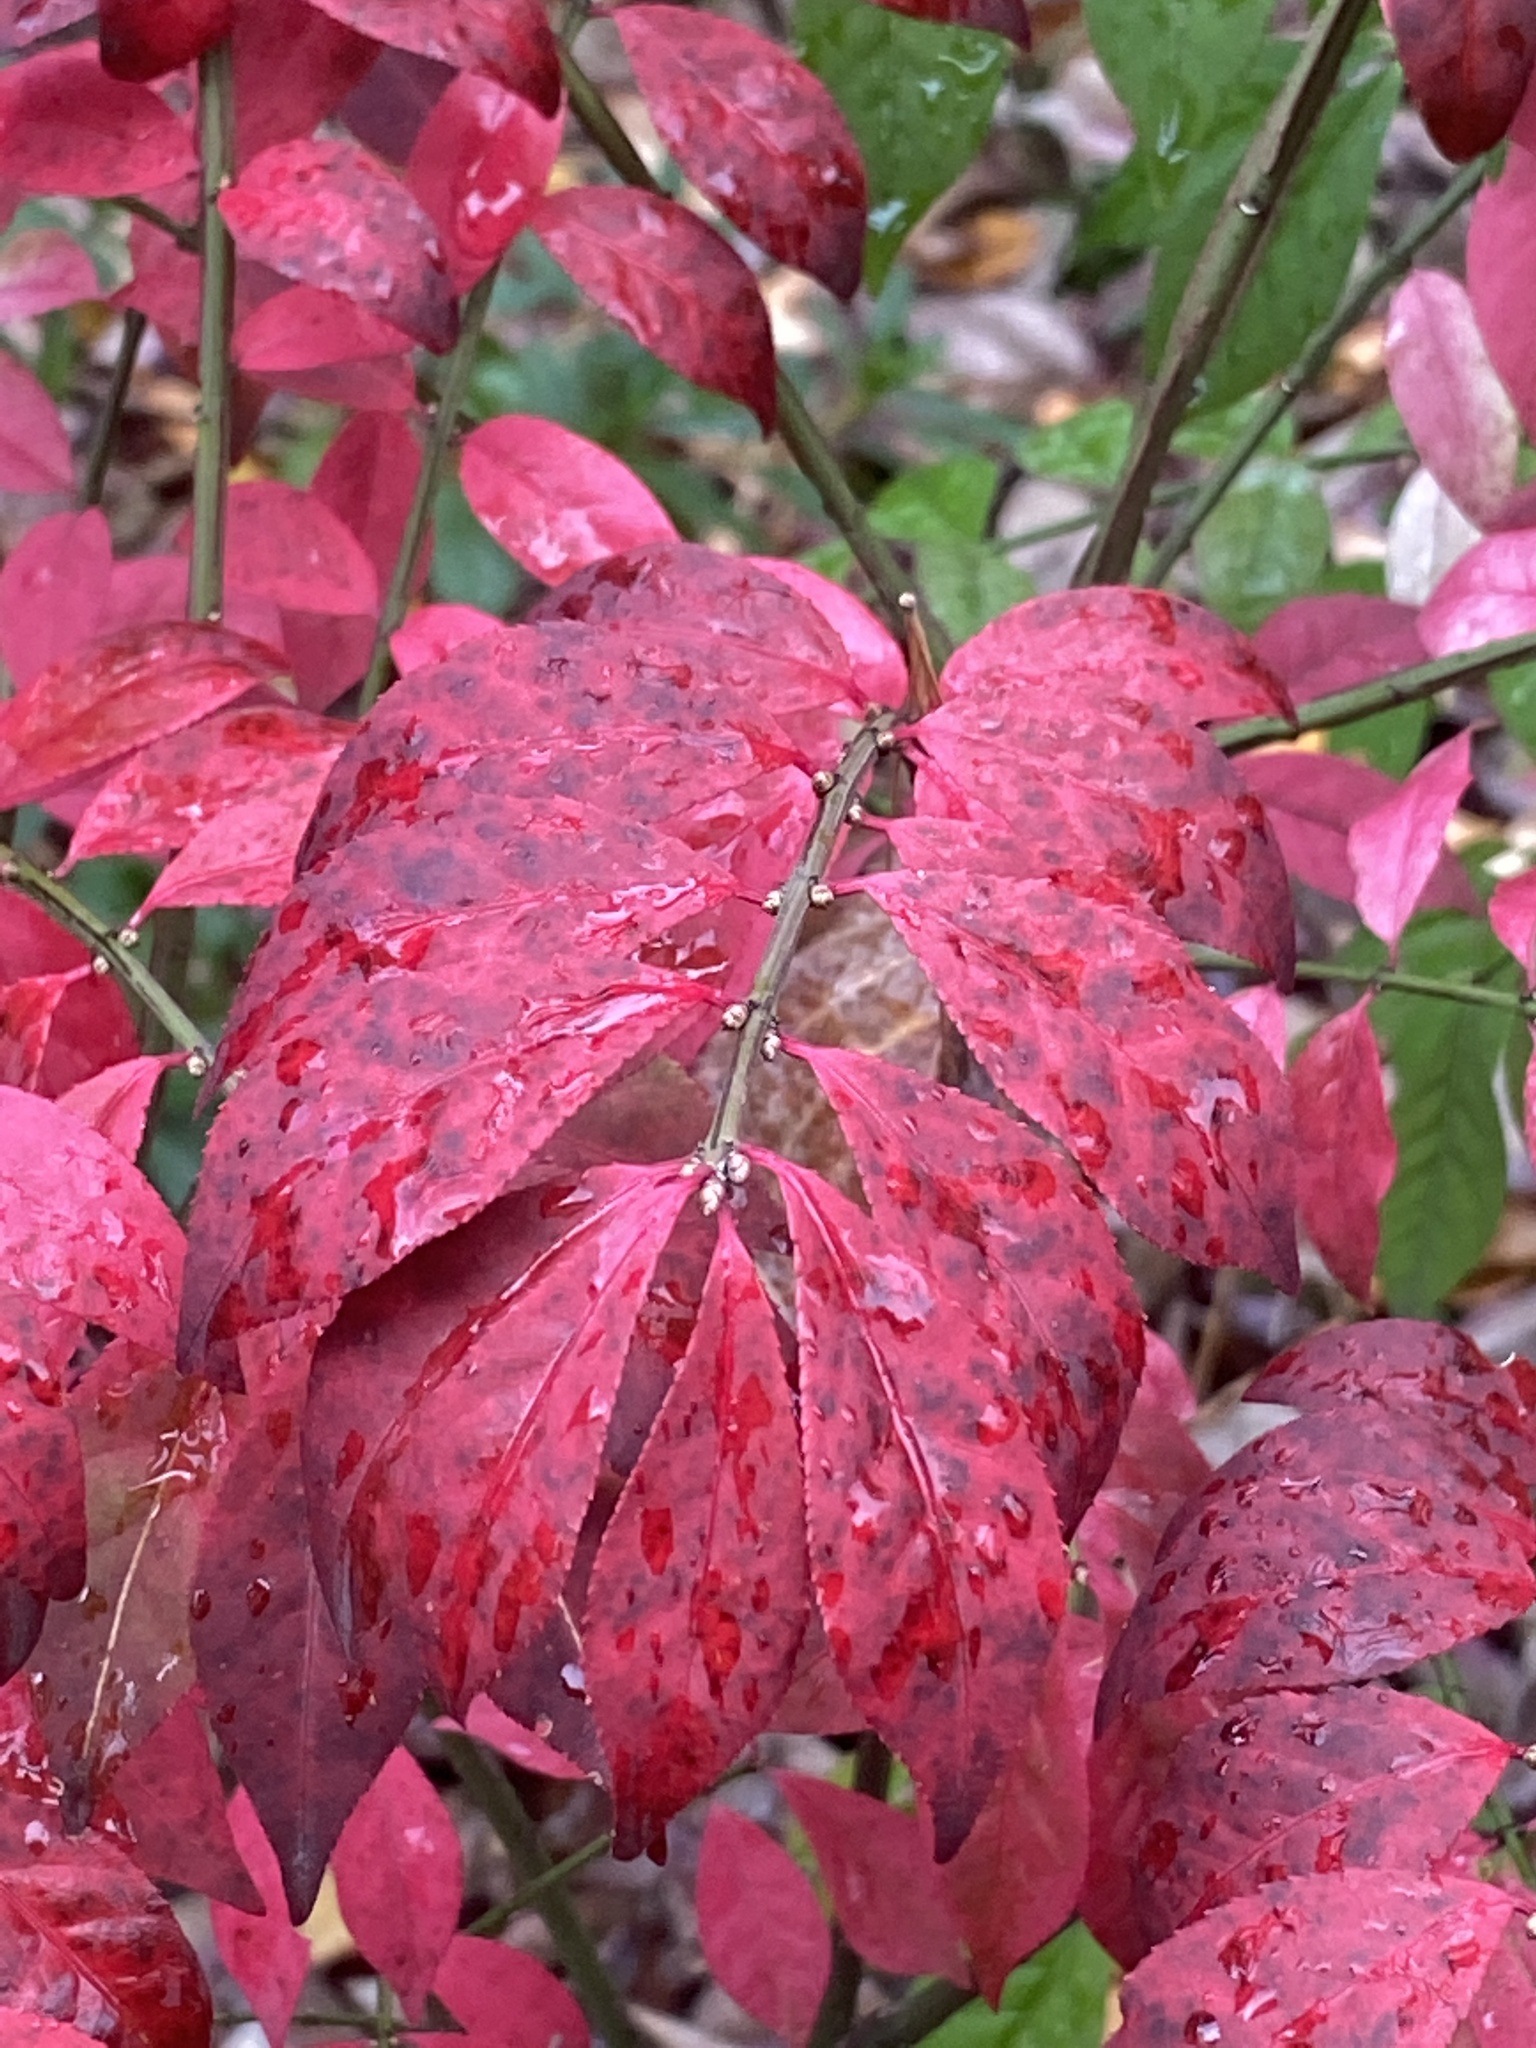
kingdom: Plantae
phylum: Tracheophyta
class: Magnoliopsida
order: Celastrales
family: Celastraceae
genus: Euonymus
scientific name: Euonymus alatus
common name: Winged euonymus
